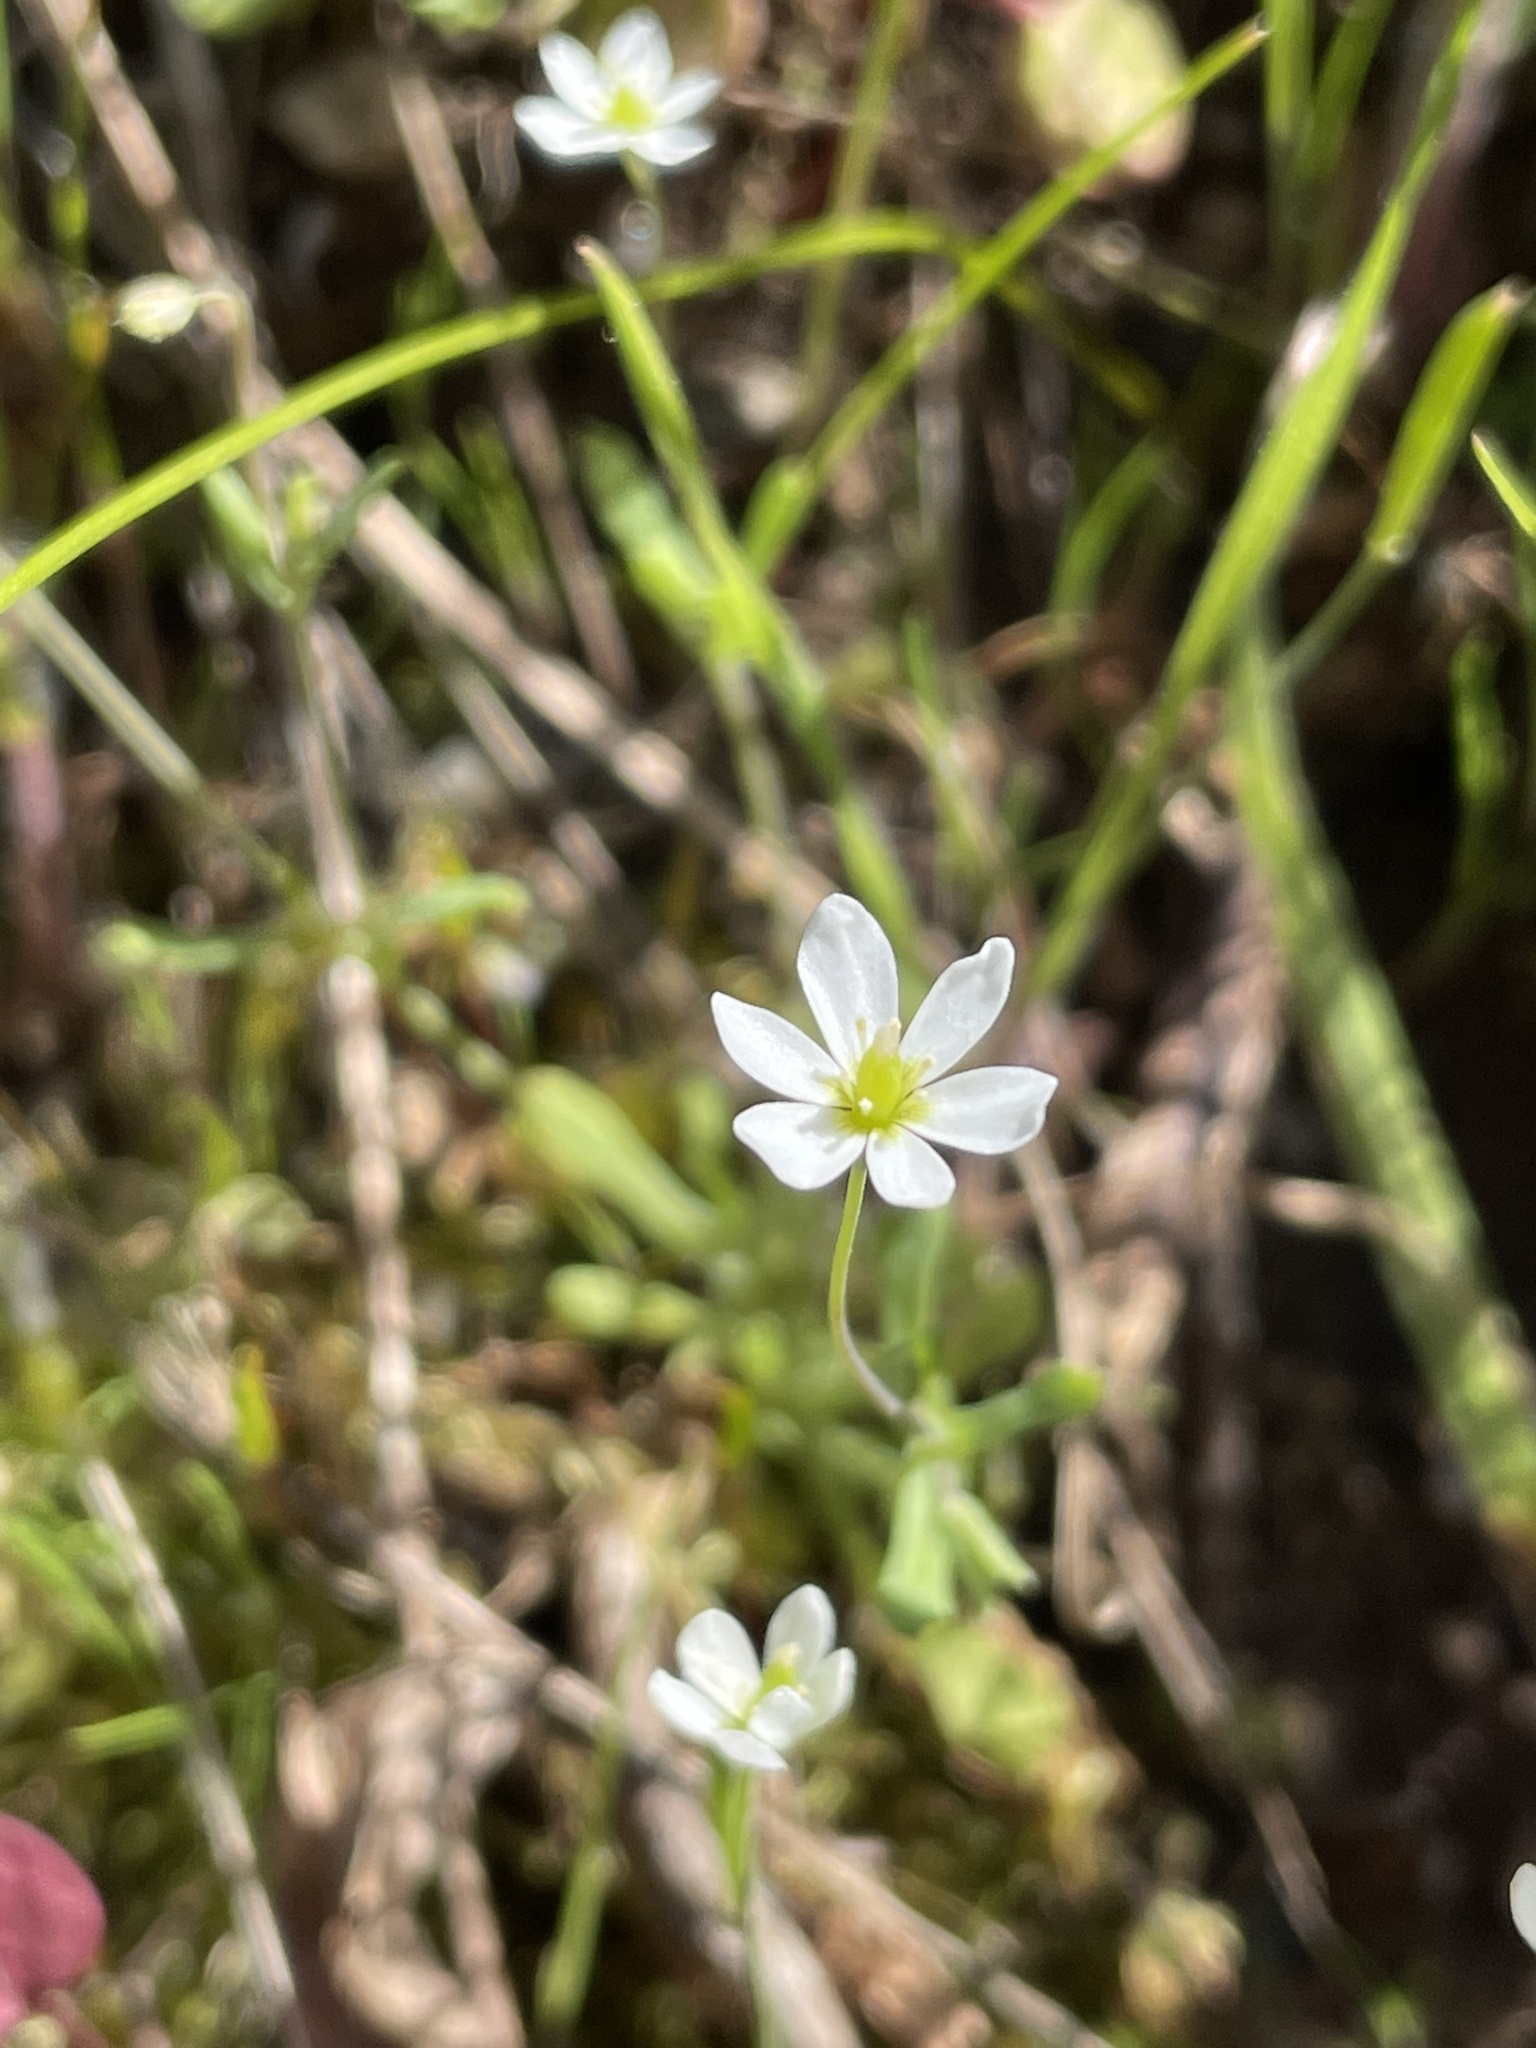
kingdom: Plantae
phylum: Tracheophyta
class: Magnoliopsida
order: Ranunculales
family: Papaveraceae
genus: Meconella
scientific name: Meconella oregana
